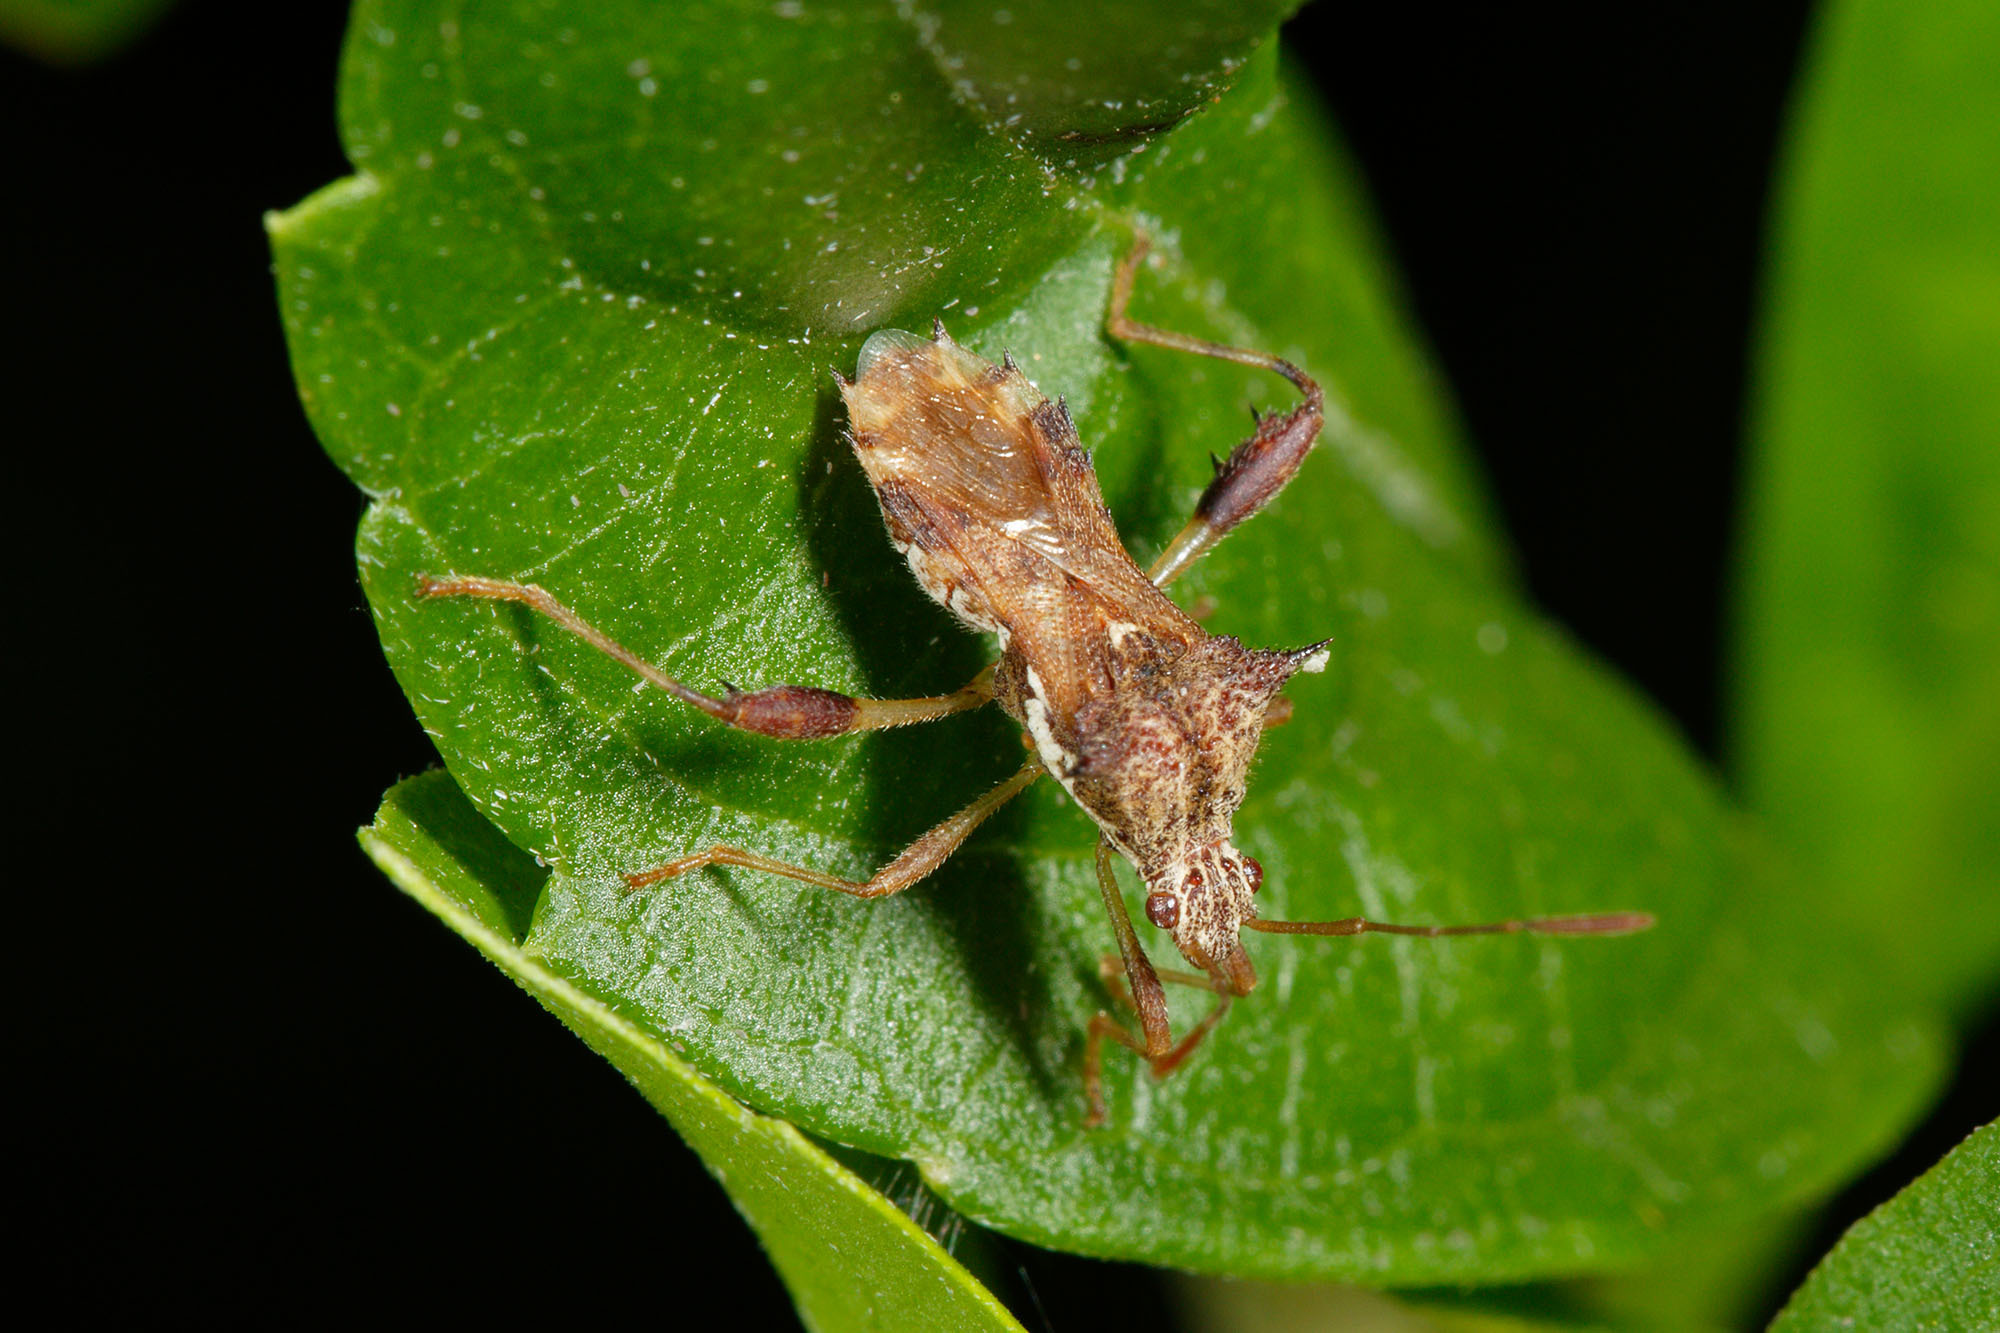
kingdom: Animalia
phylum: Arthropoda
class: Insecta
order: Hemiptera
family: Coreidae
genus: Gralliclava
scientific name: Gralliclava australiensis
